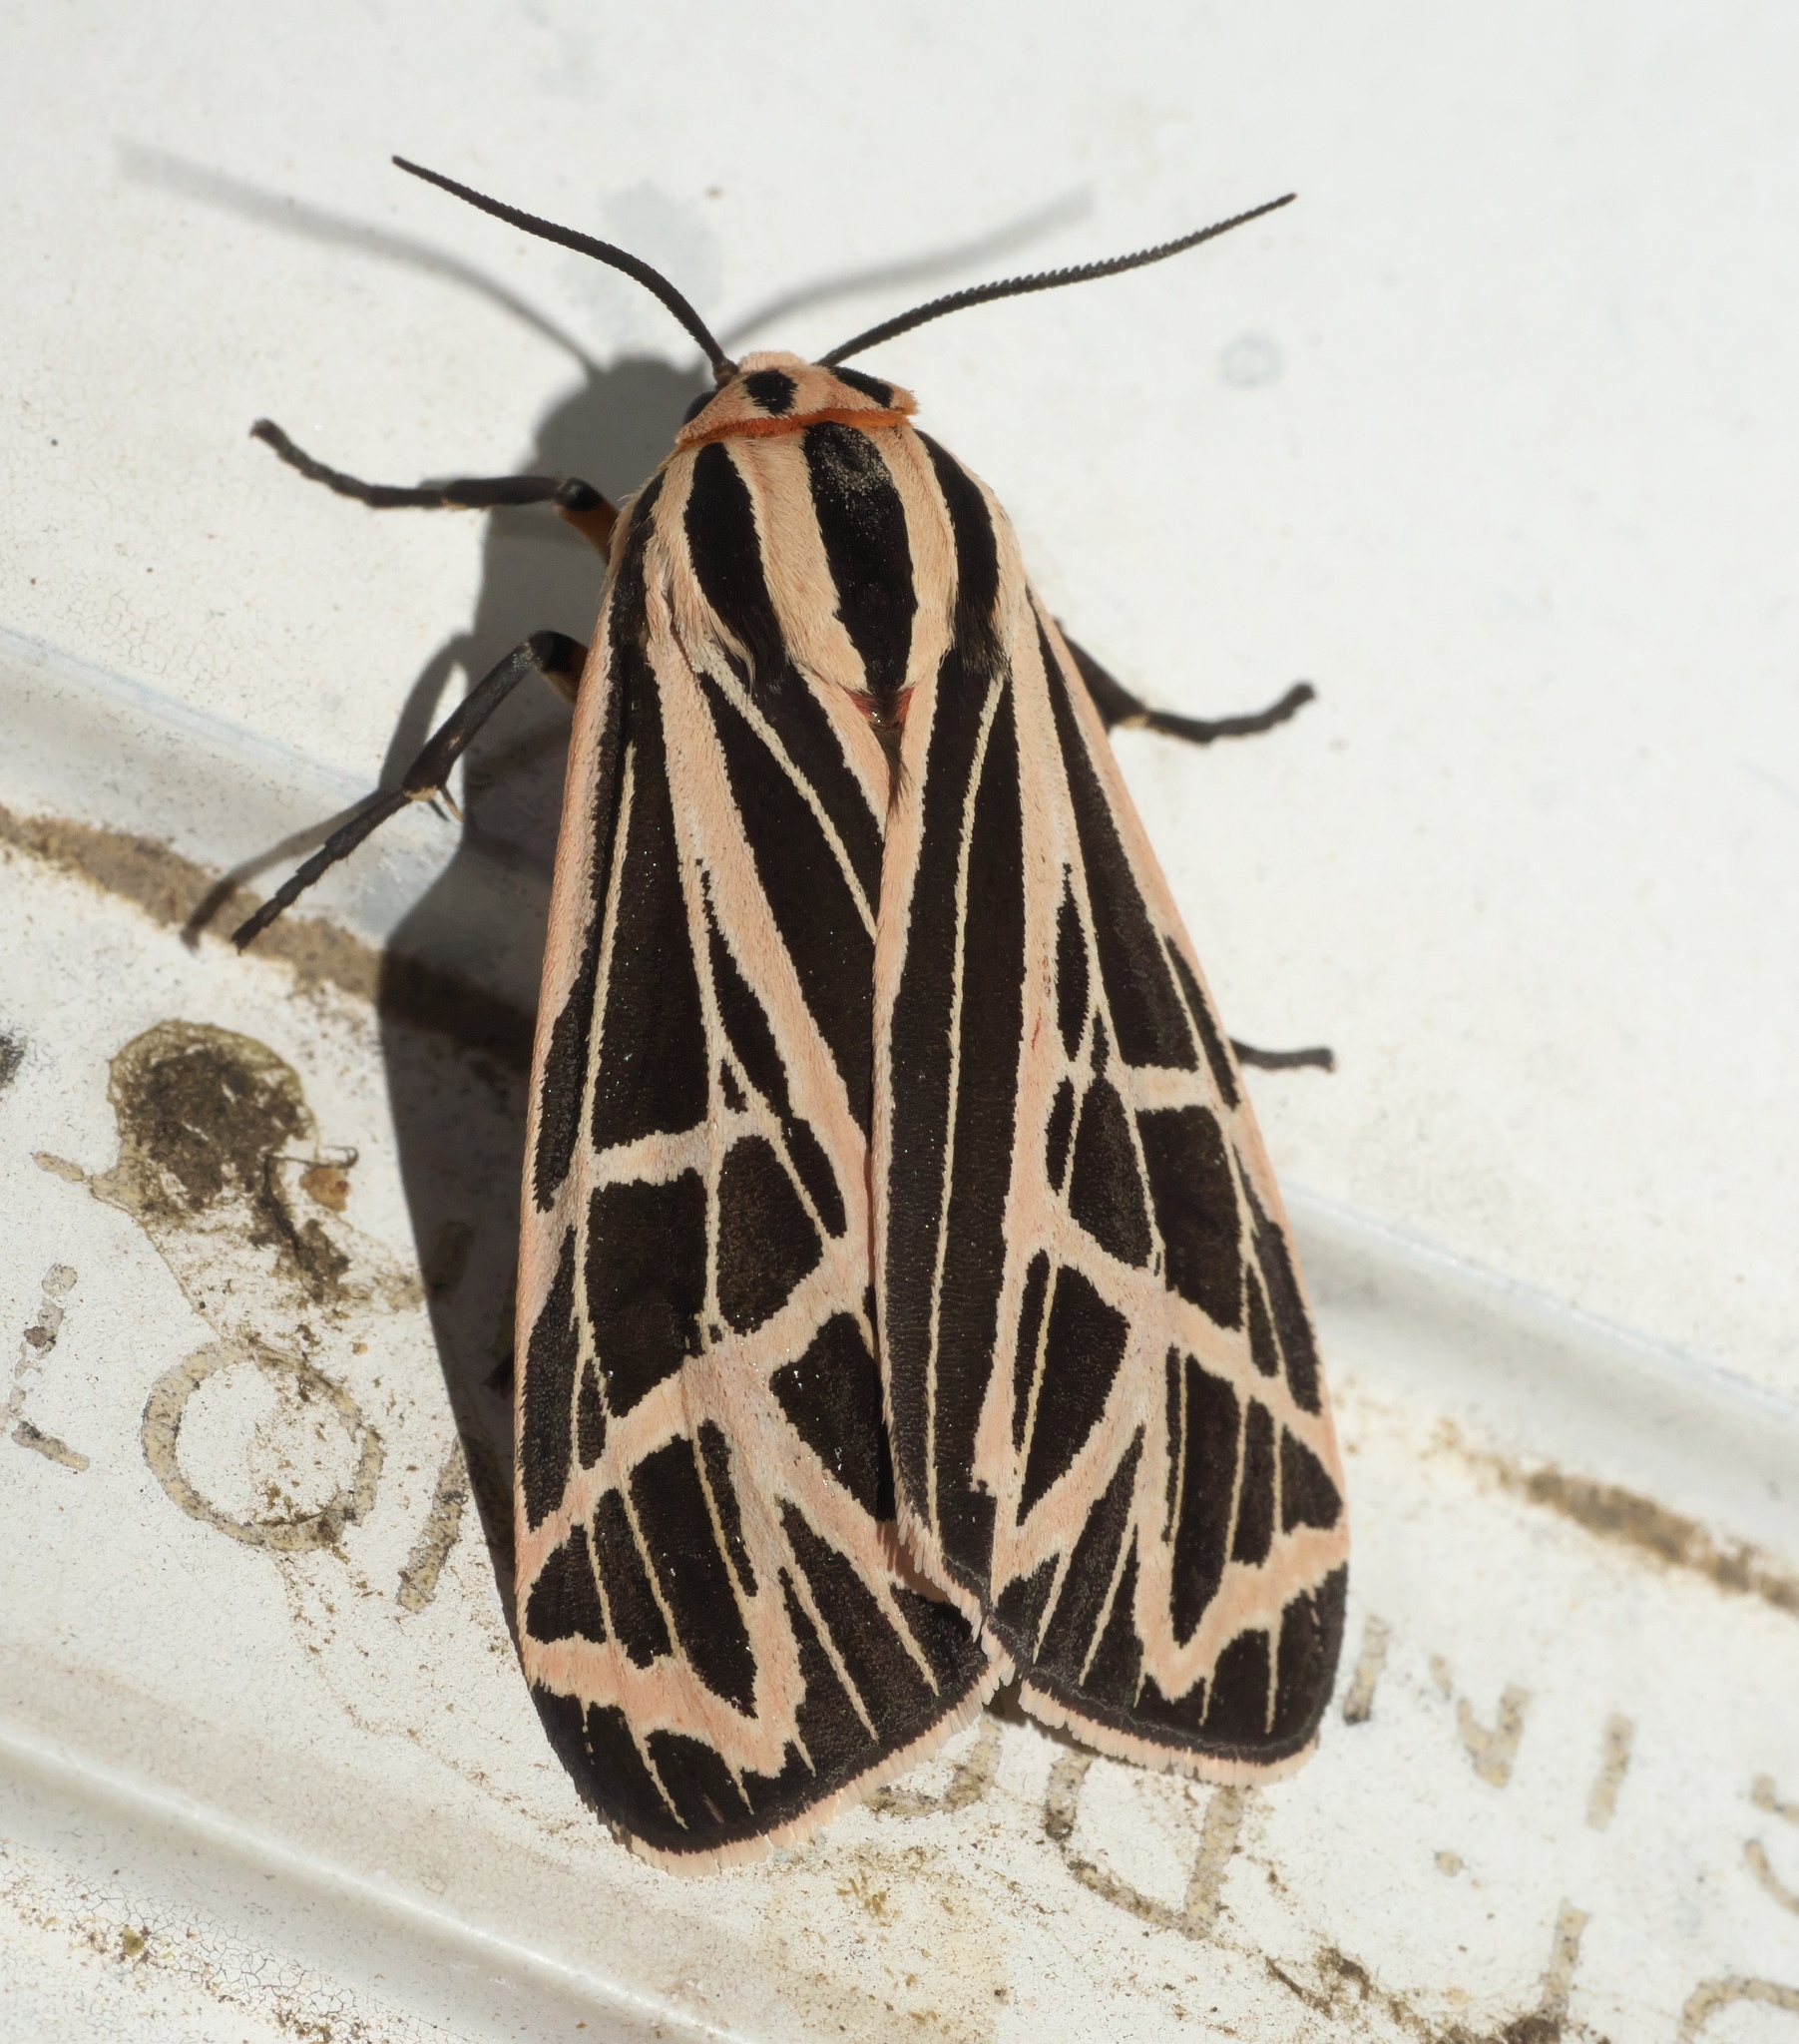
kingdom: Animalia
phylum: Arthropoda
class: Insecta
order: Lepidoptera
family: Erebidae
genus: Apantesis
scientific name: Apantesis
